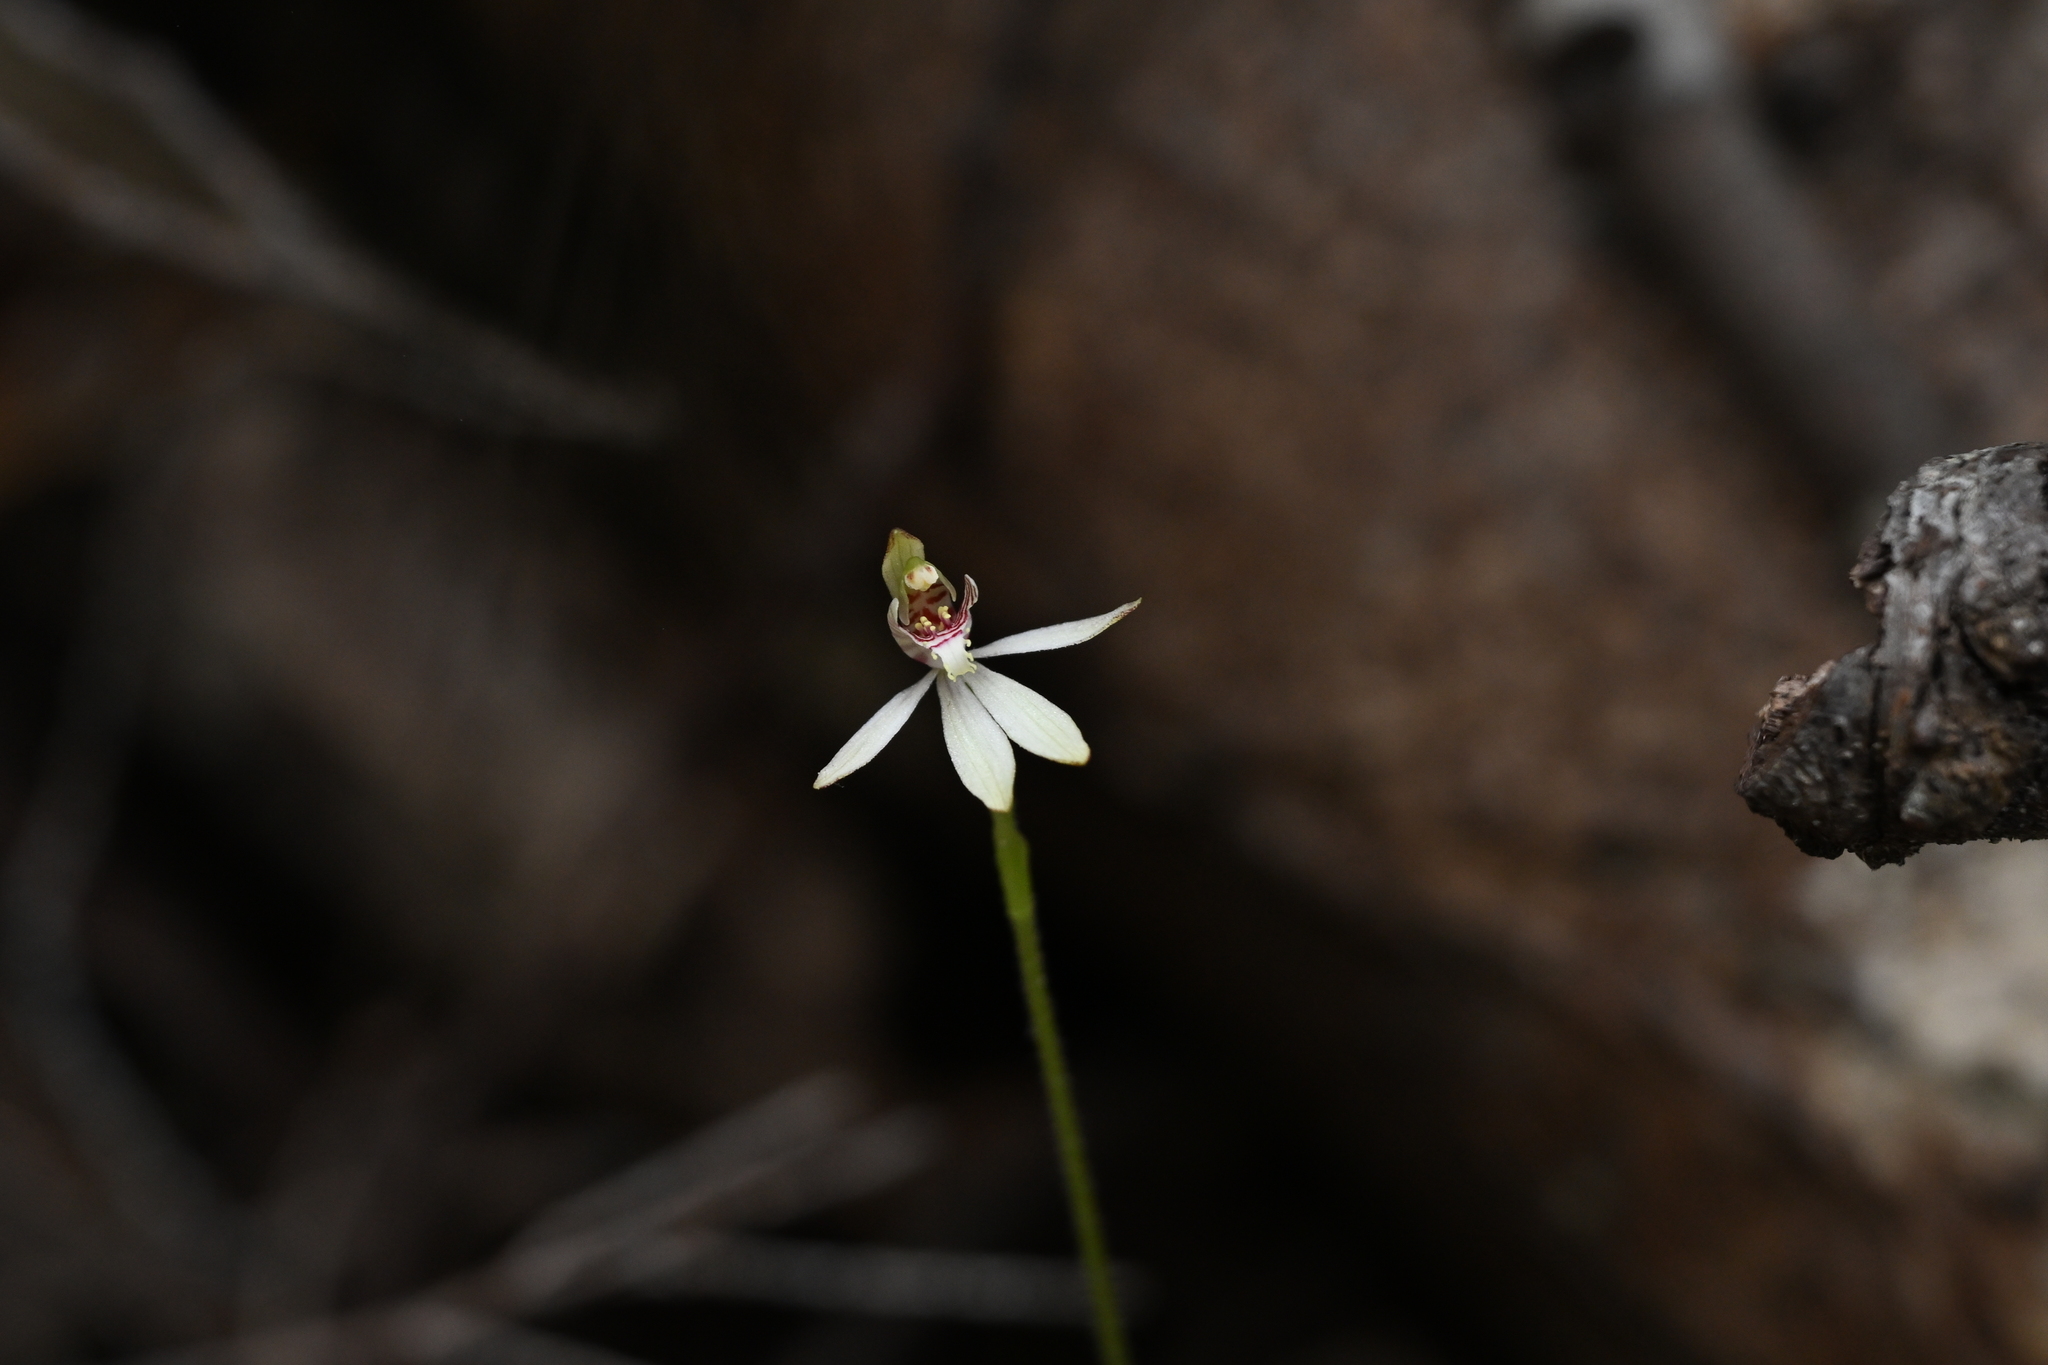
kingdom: Plantae
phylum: Tracheophyta
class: Liliopsida
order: Asparagales
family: Orchidaceae
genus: Caladenia
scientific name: Caladenia chlorostyla
